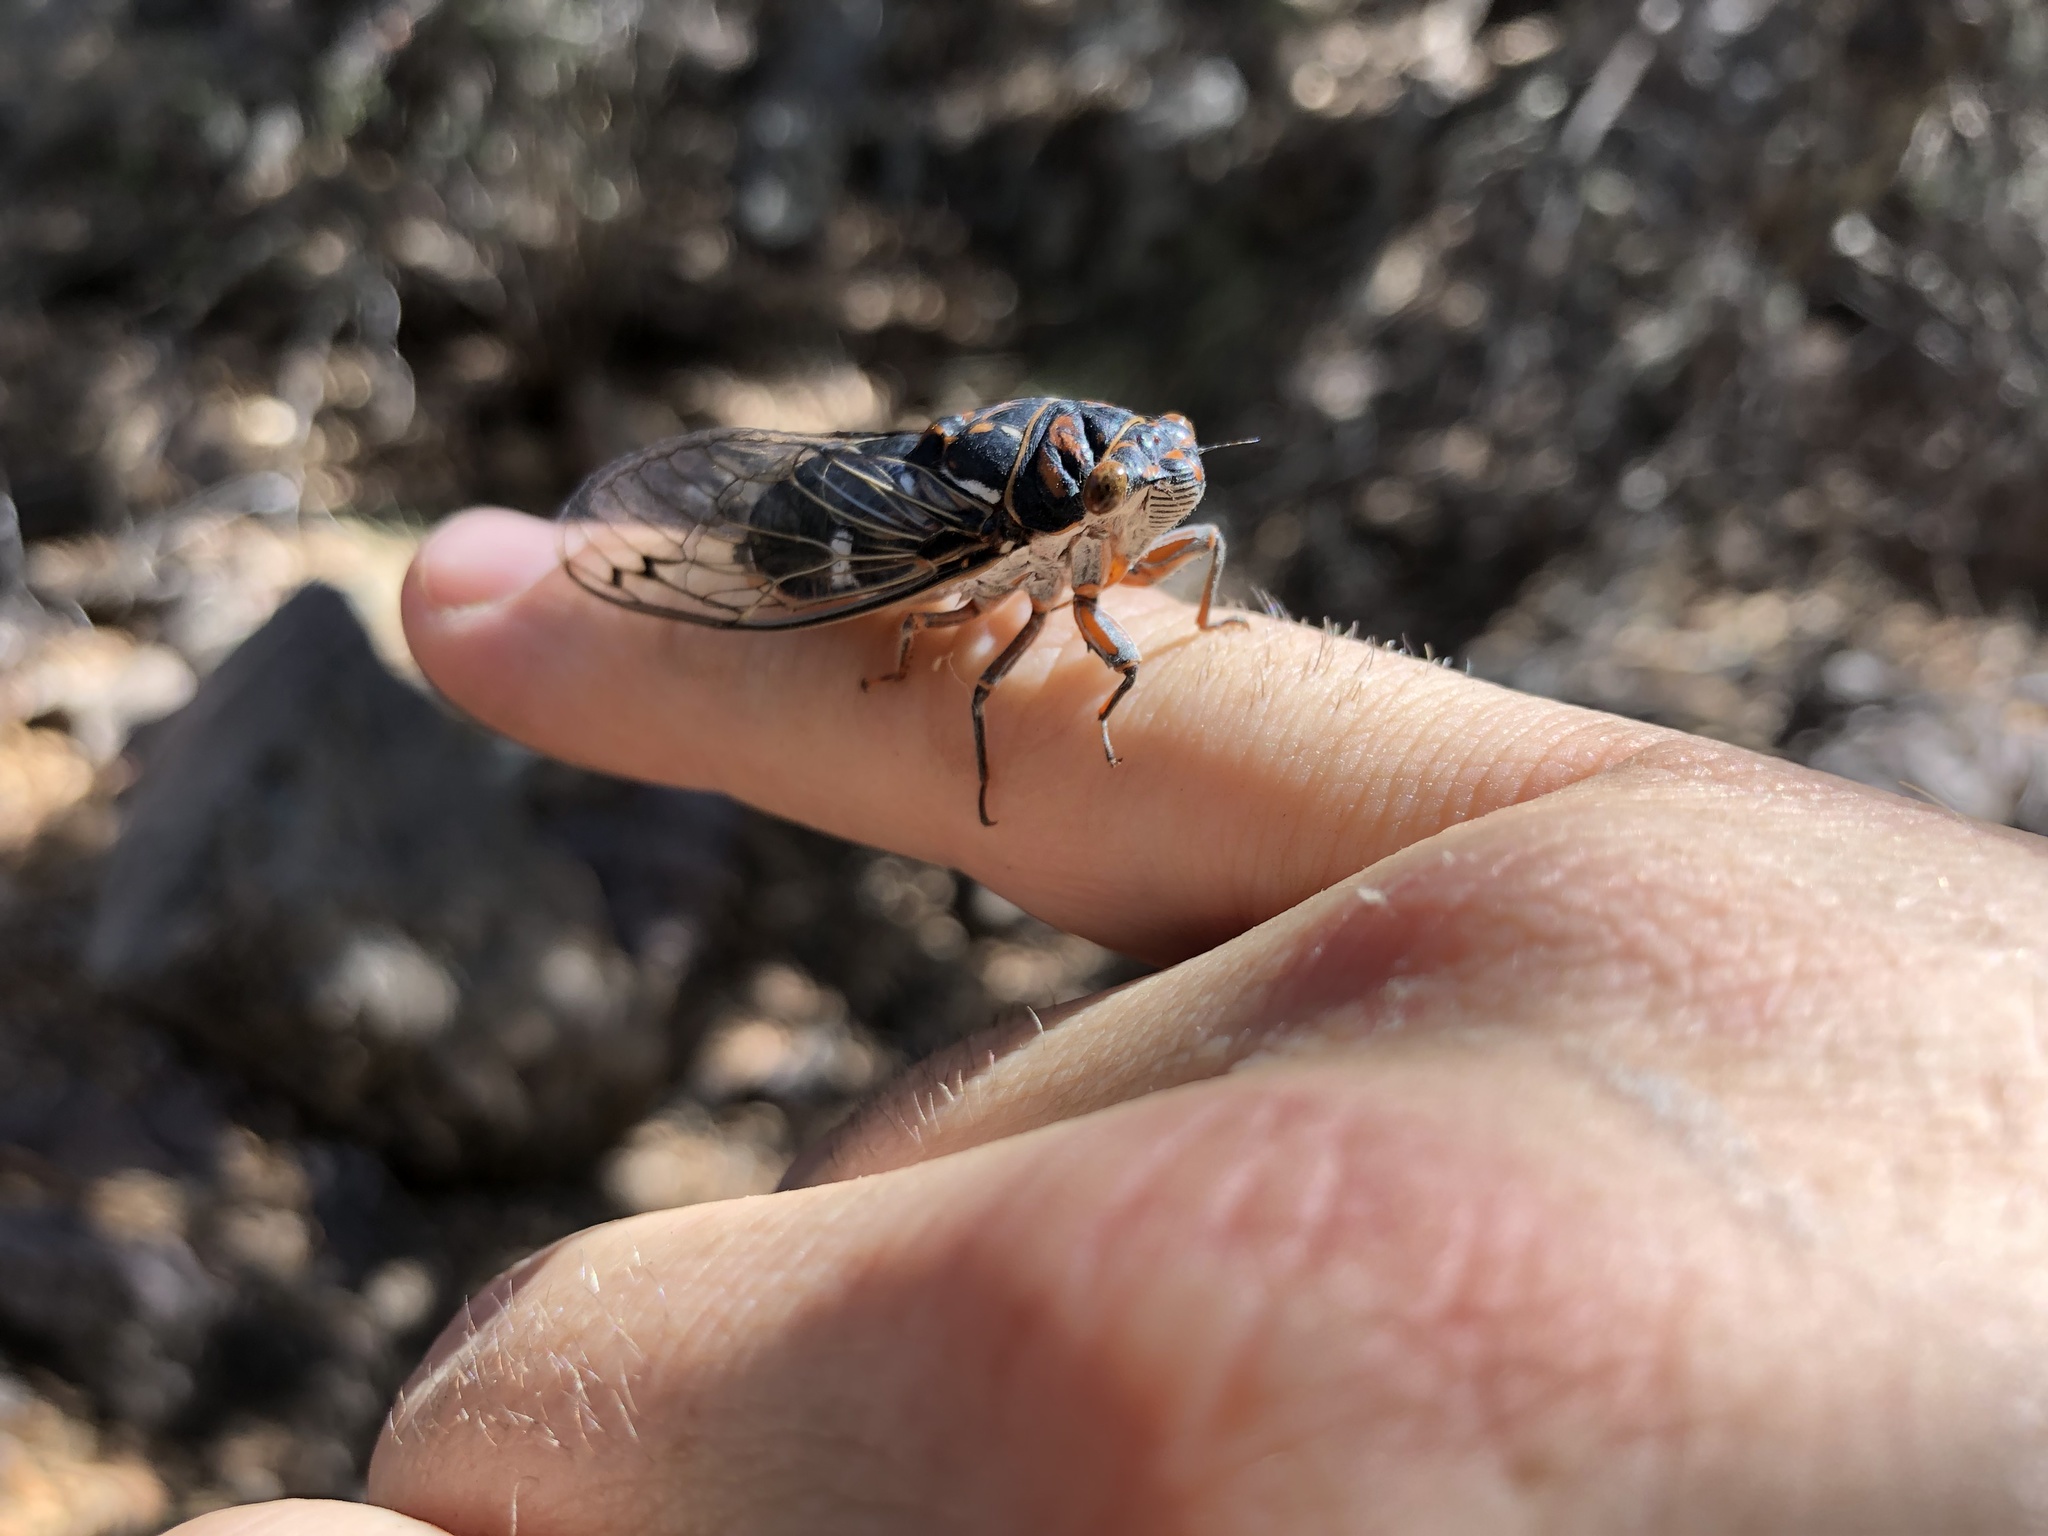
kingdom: Animalia
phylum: Arthropoda
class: Insecta
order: Hemiptera
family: Cicadidae
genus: Hadoa
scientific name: Hadoa duryi
